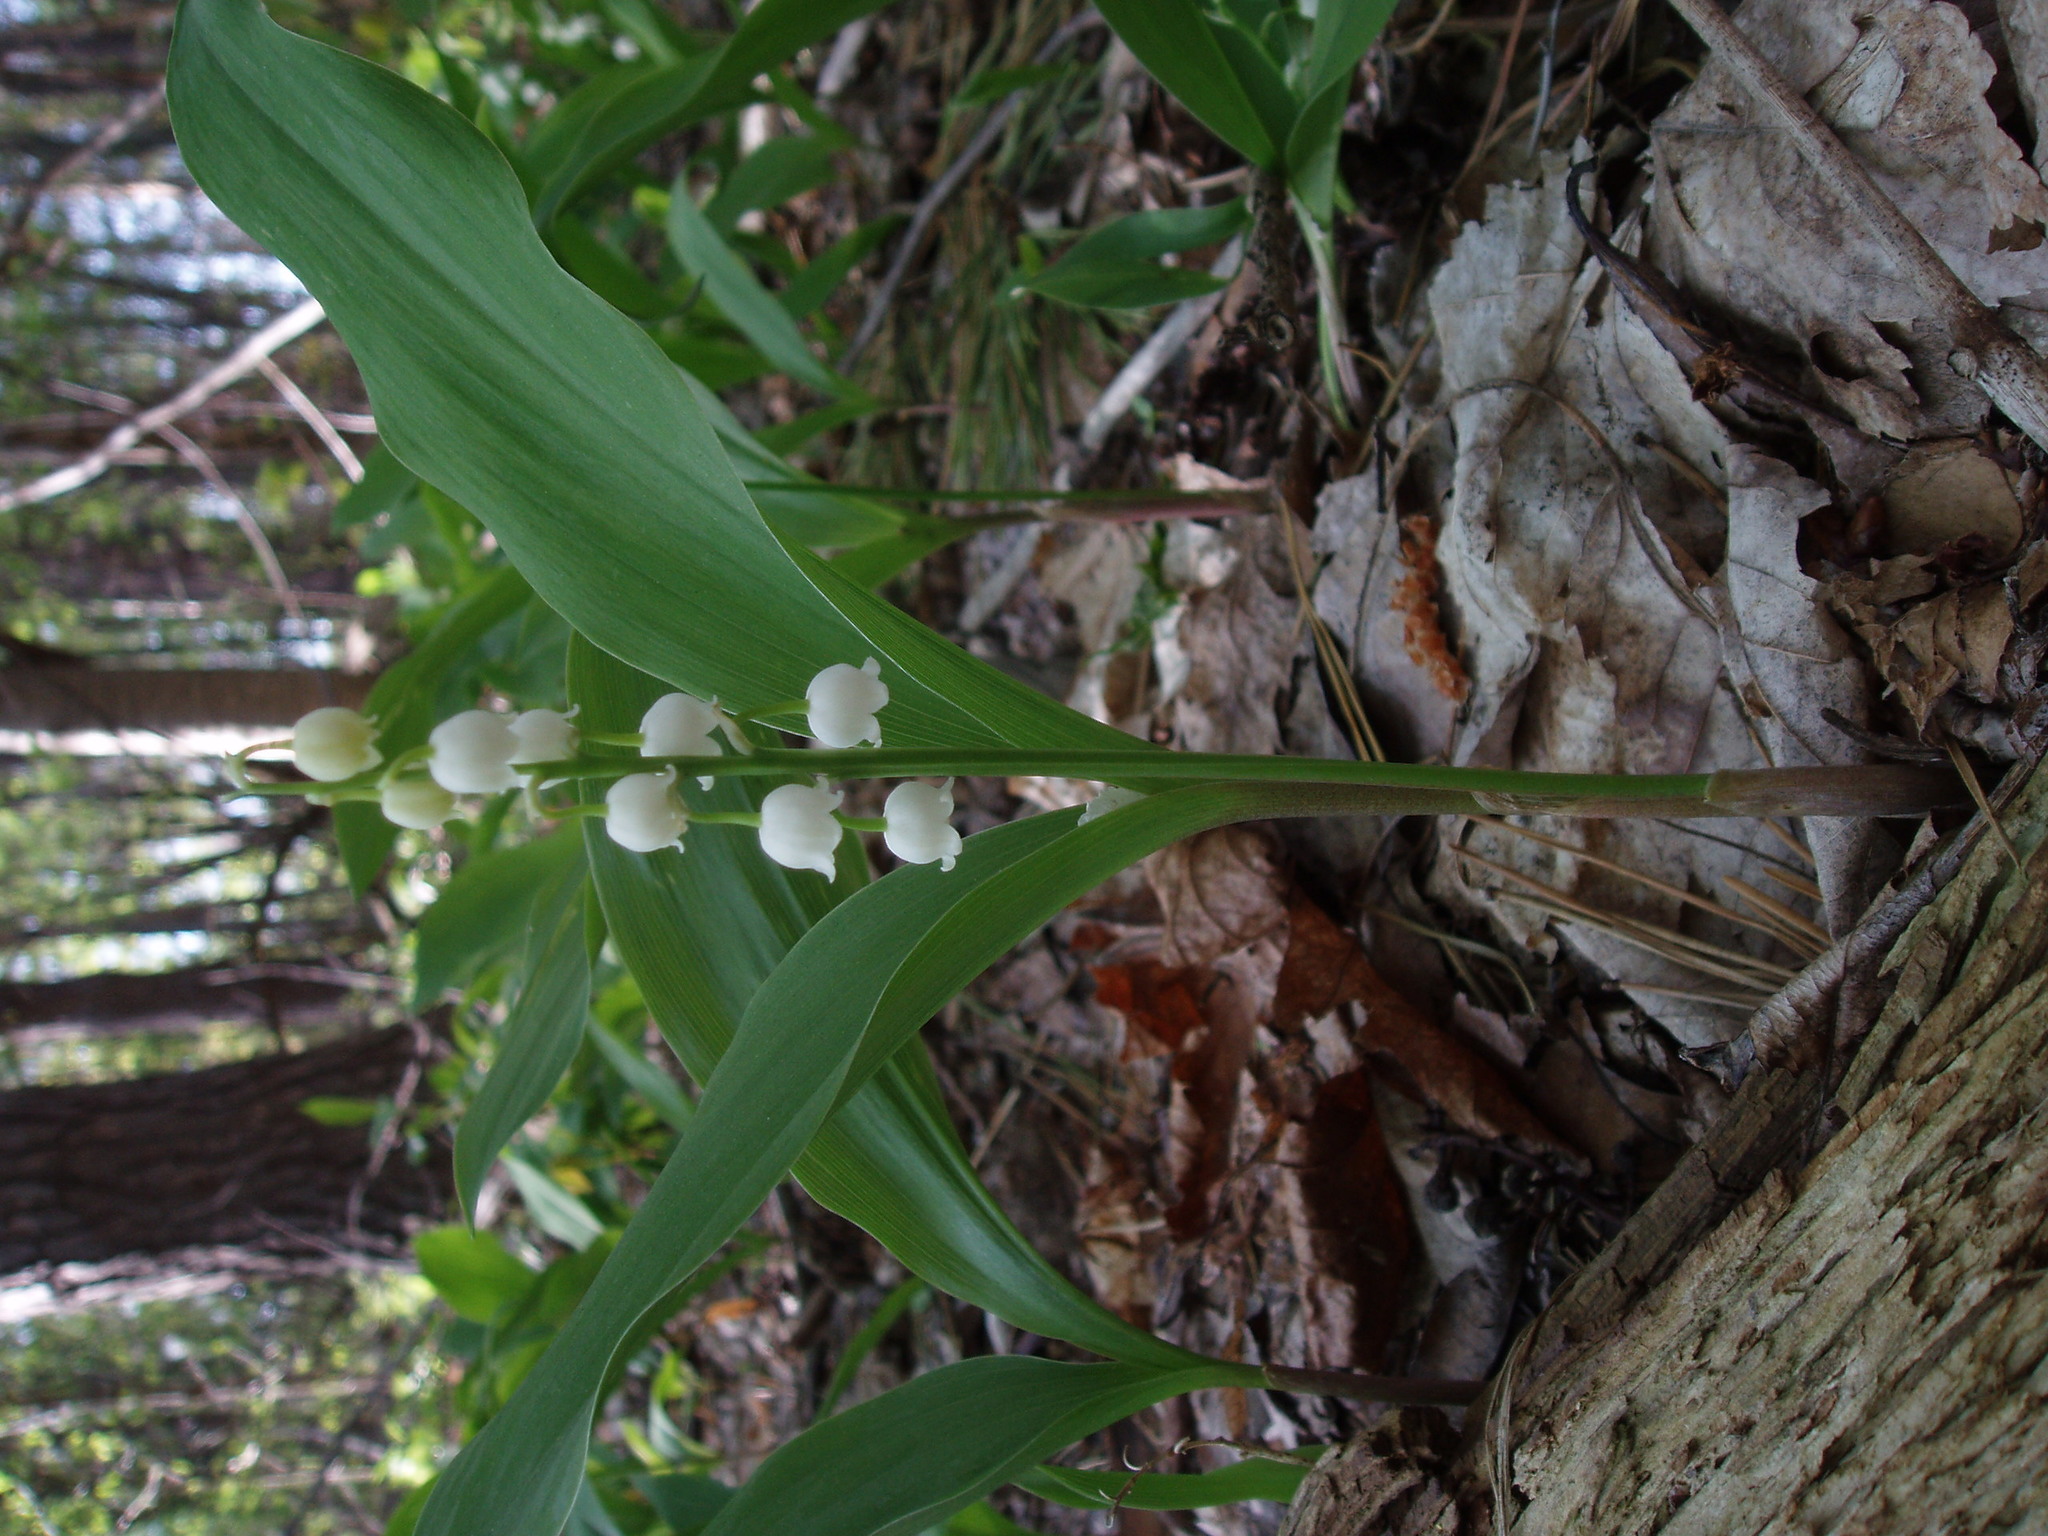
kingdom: Plantae
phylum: Tracheophyta
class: Liliopsida
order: Asparagales
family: Asparagaceae
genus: Convallaria
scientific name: Convallaria majalis
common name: Lily-of-the-valley
